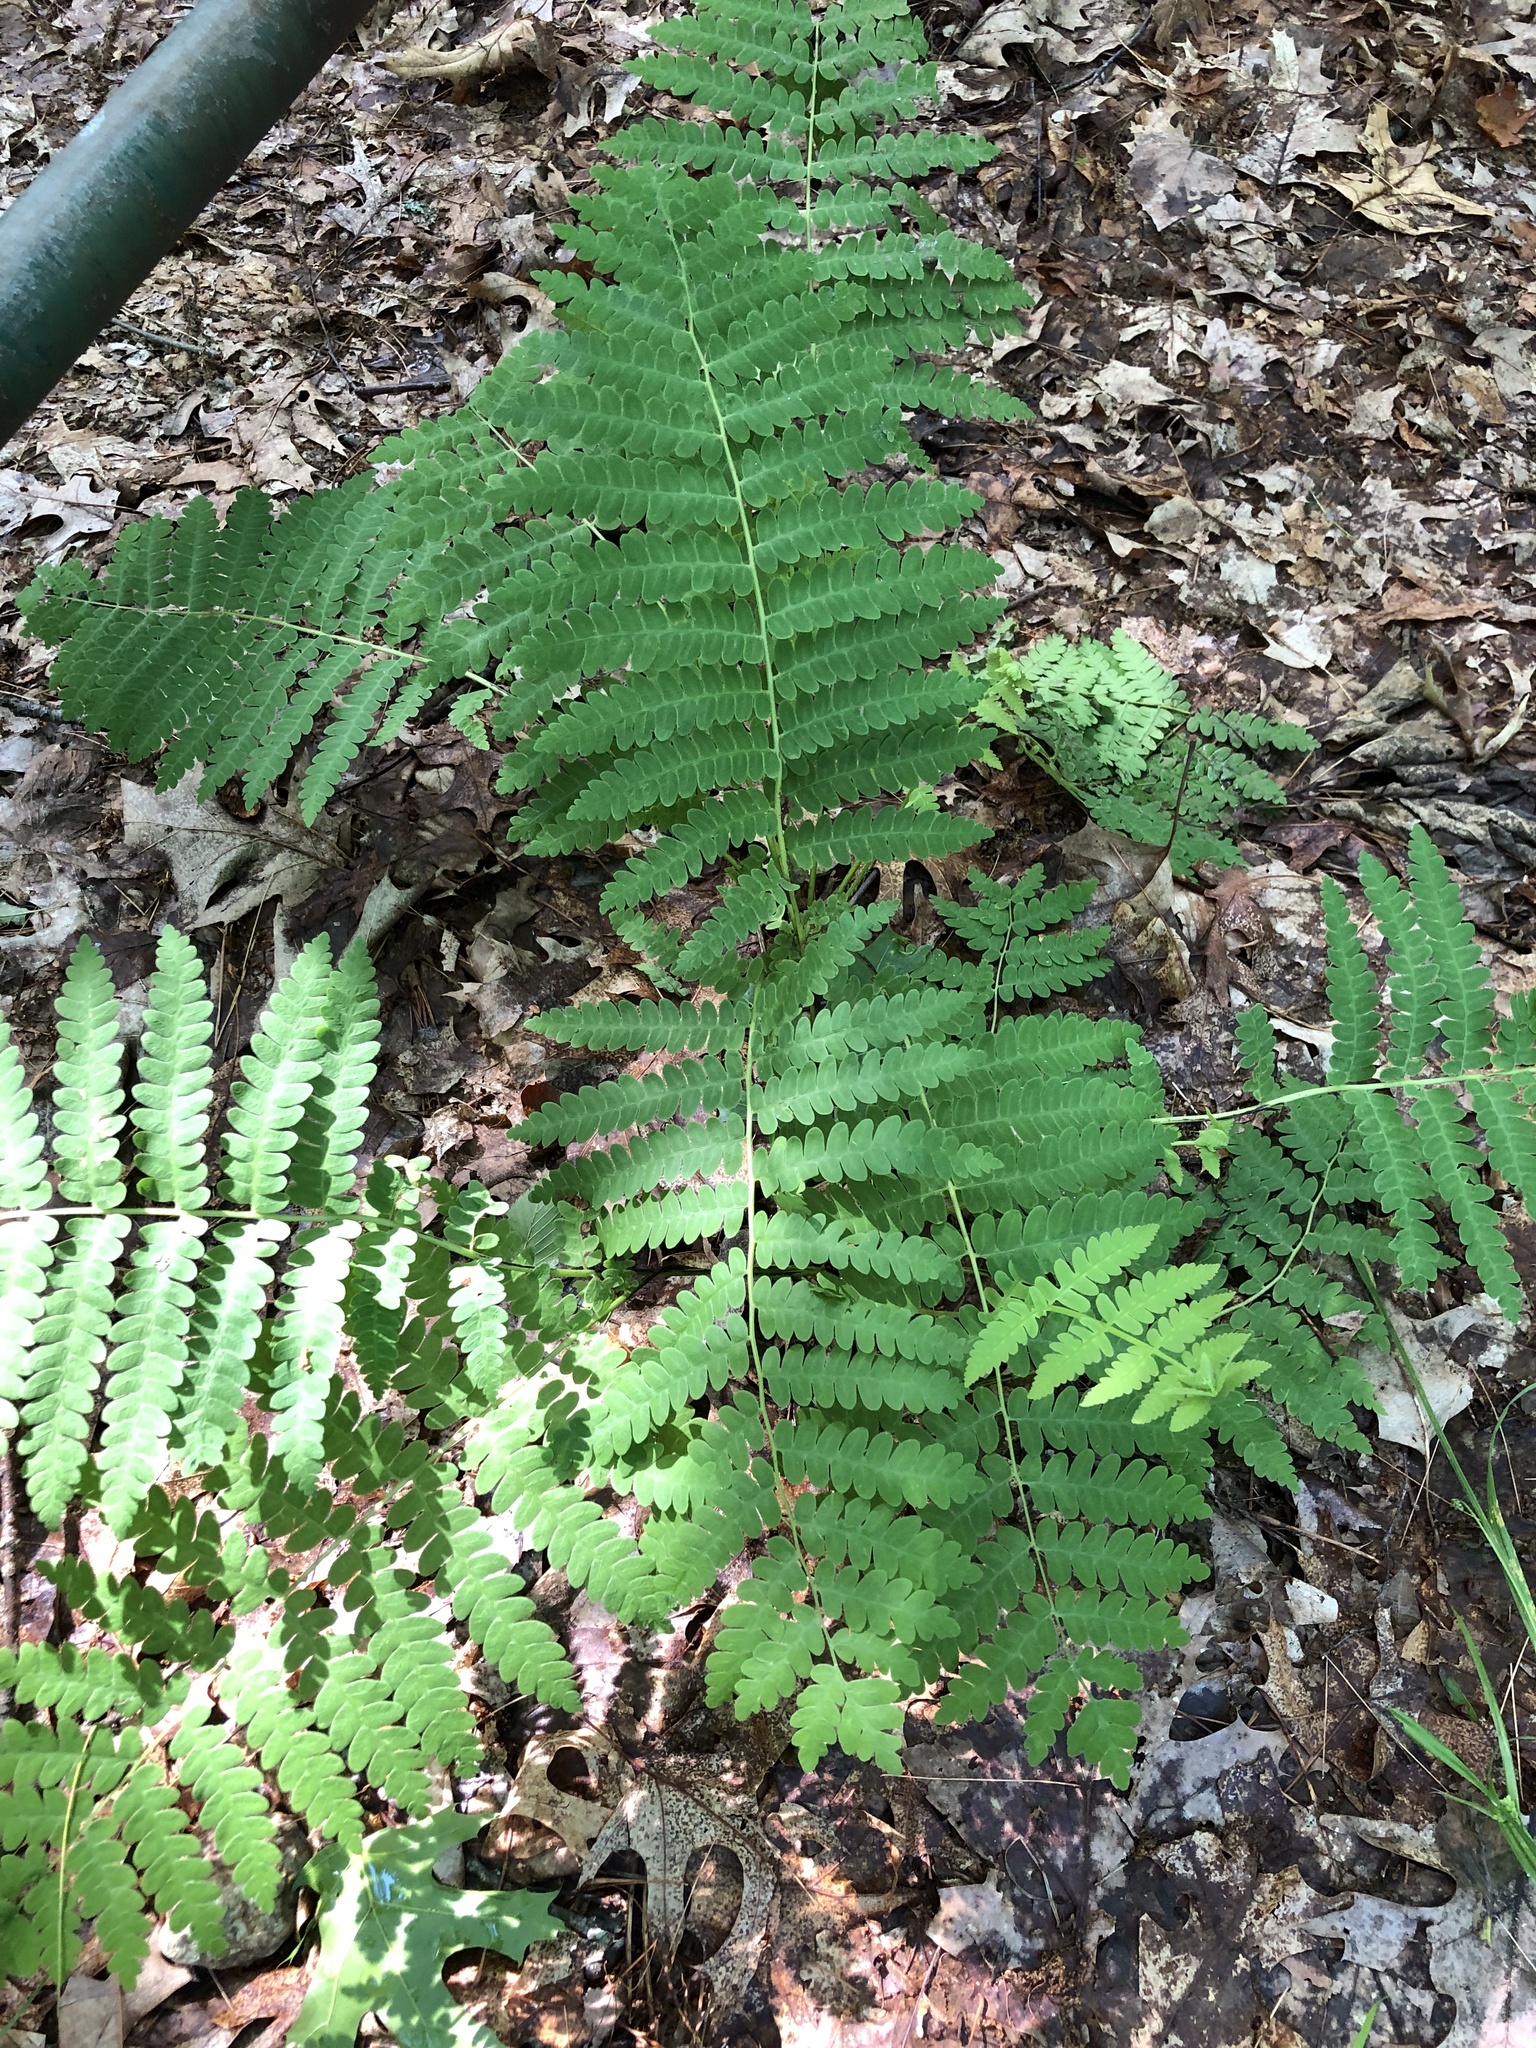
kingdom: Plantae
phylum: Tracheophyta
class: Polypodiopsida
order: Osmundales
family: Osmundaceae
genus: Claytosmunda
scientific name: Claytosmunda claytoniana
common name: Clayton's fern
